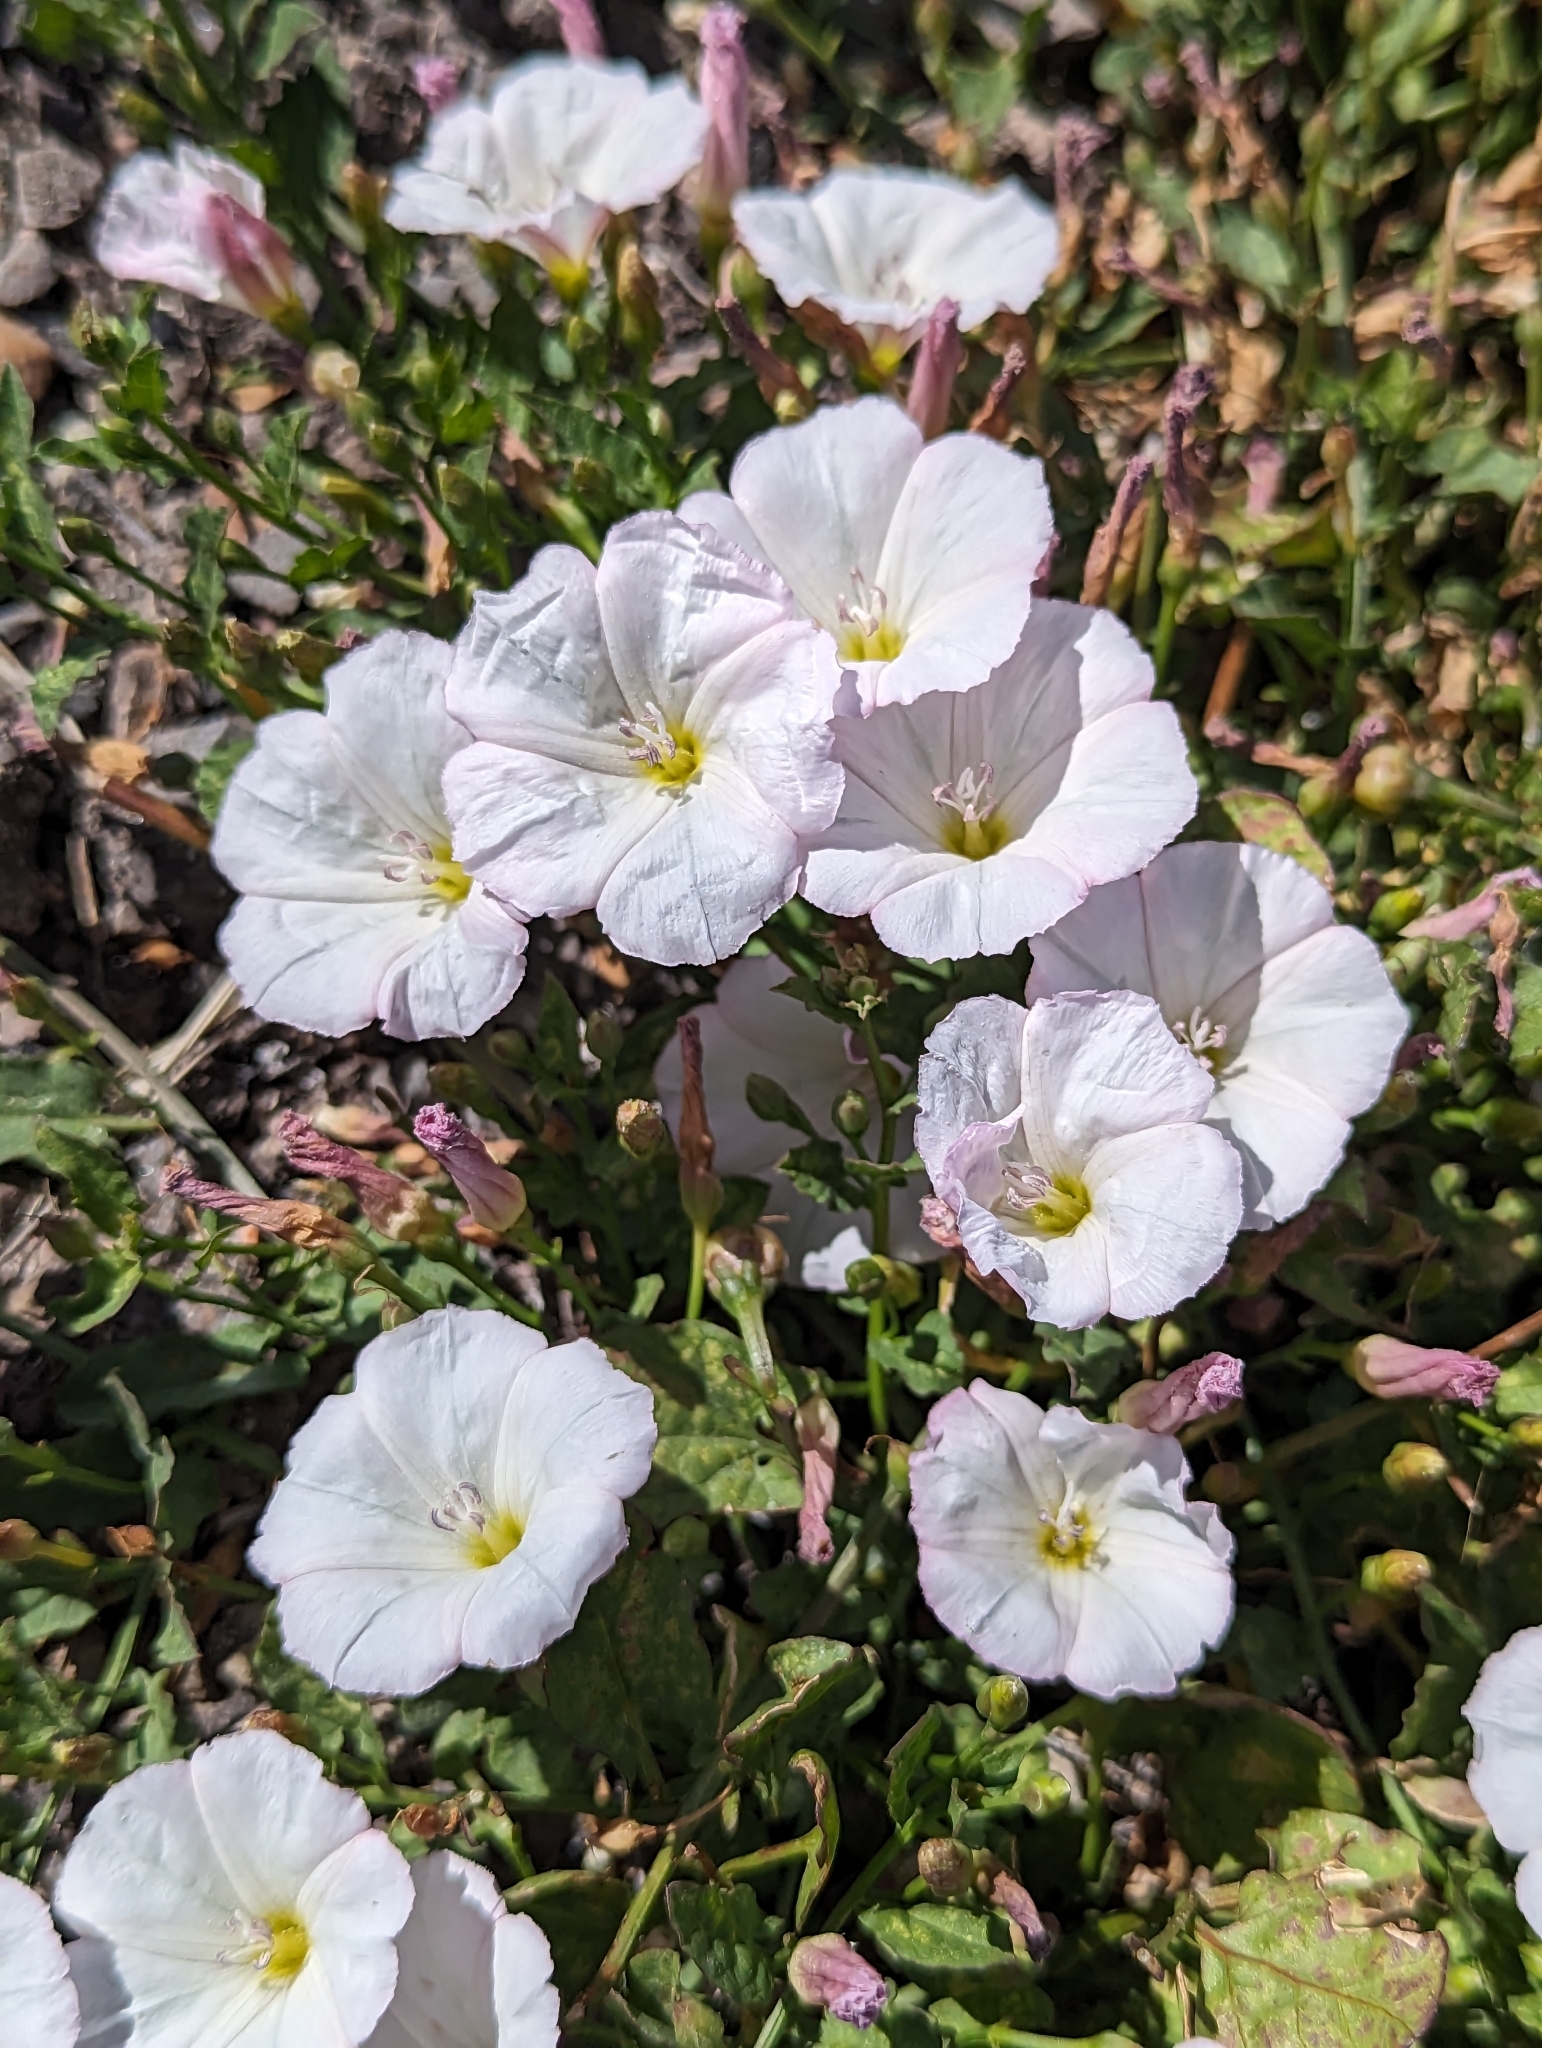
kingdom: Plantae
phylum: Tracheophyta
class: Magnoliopsida
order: Solanales
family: Convolvulaceae
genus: Convolvulus
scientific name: Convolvulus arvensis
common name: Field bindweed
